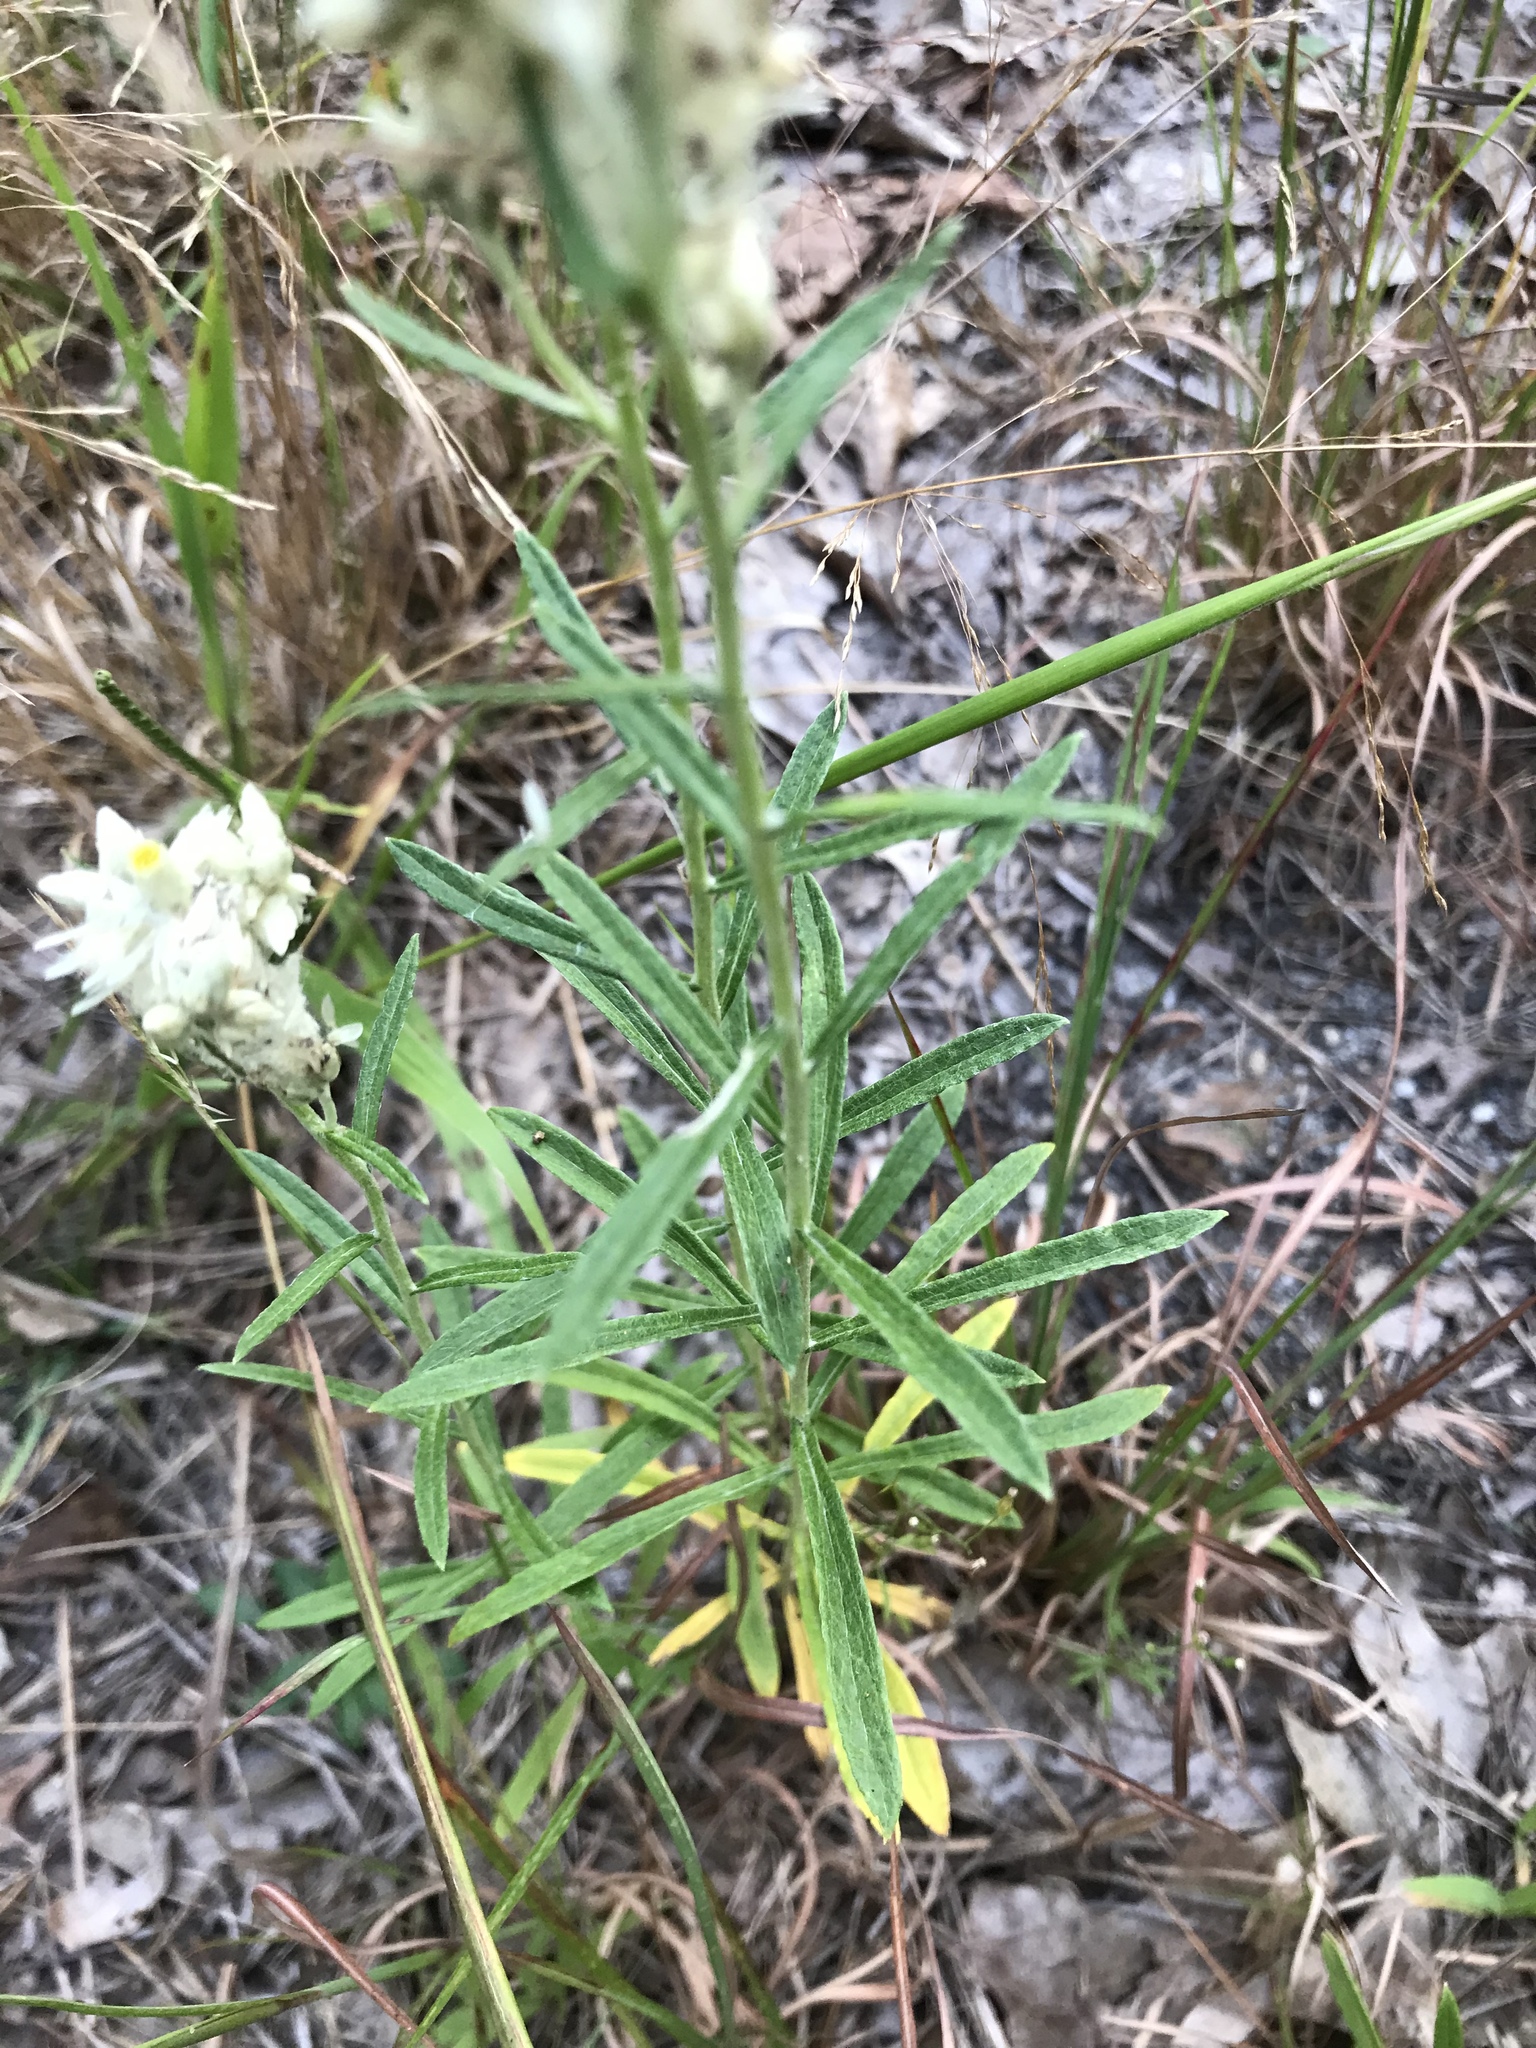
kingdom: Plantae
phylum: Tracheophyta
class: Magnoliopsida
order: Asterales
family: Asteraceae
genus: Pseudognaphalium
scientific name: Pseudognaphalium obtusifolium
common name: Eastern rabbit-tobacco
